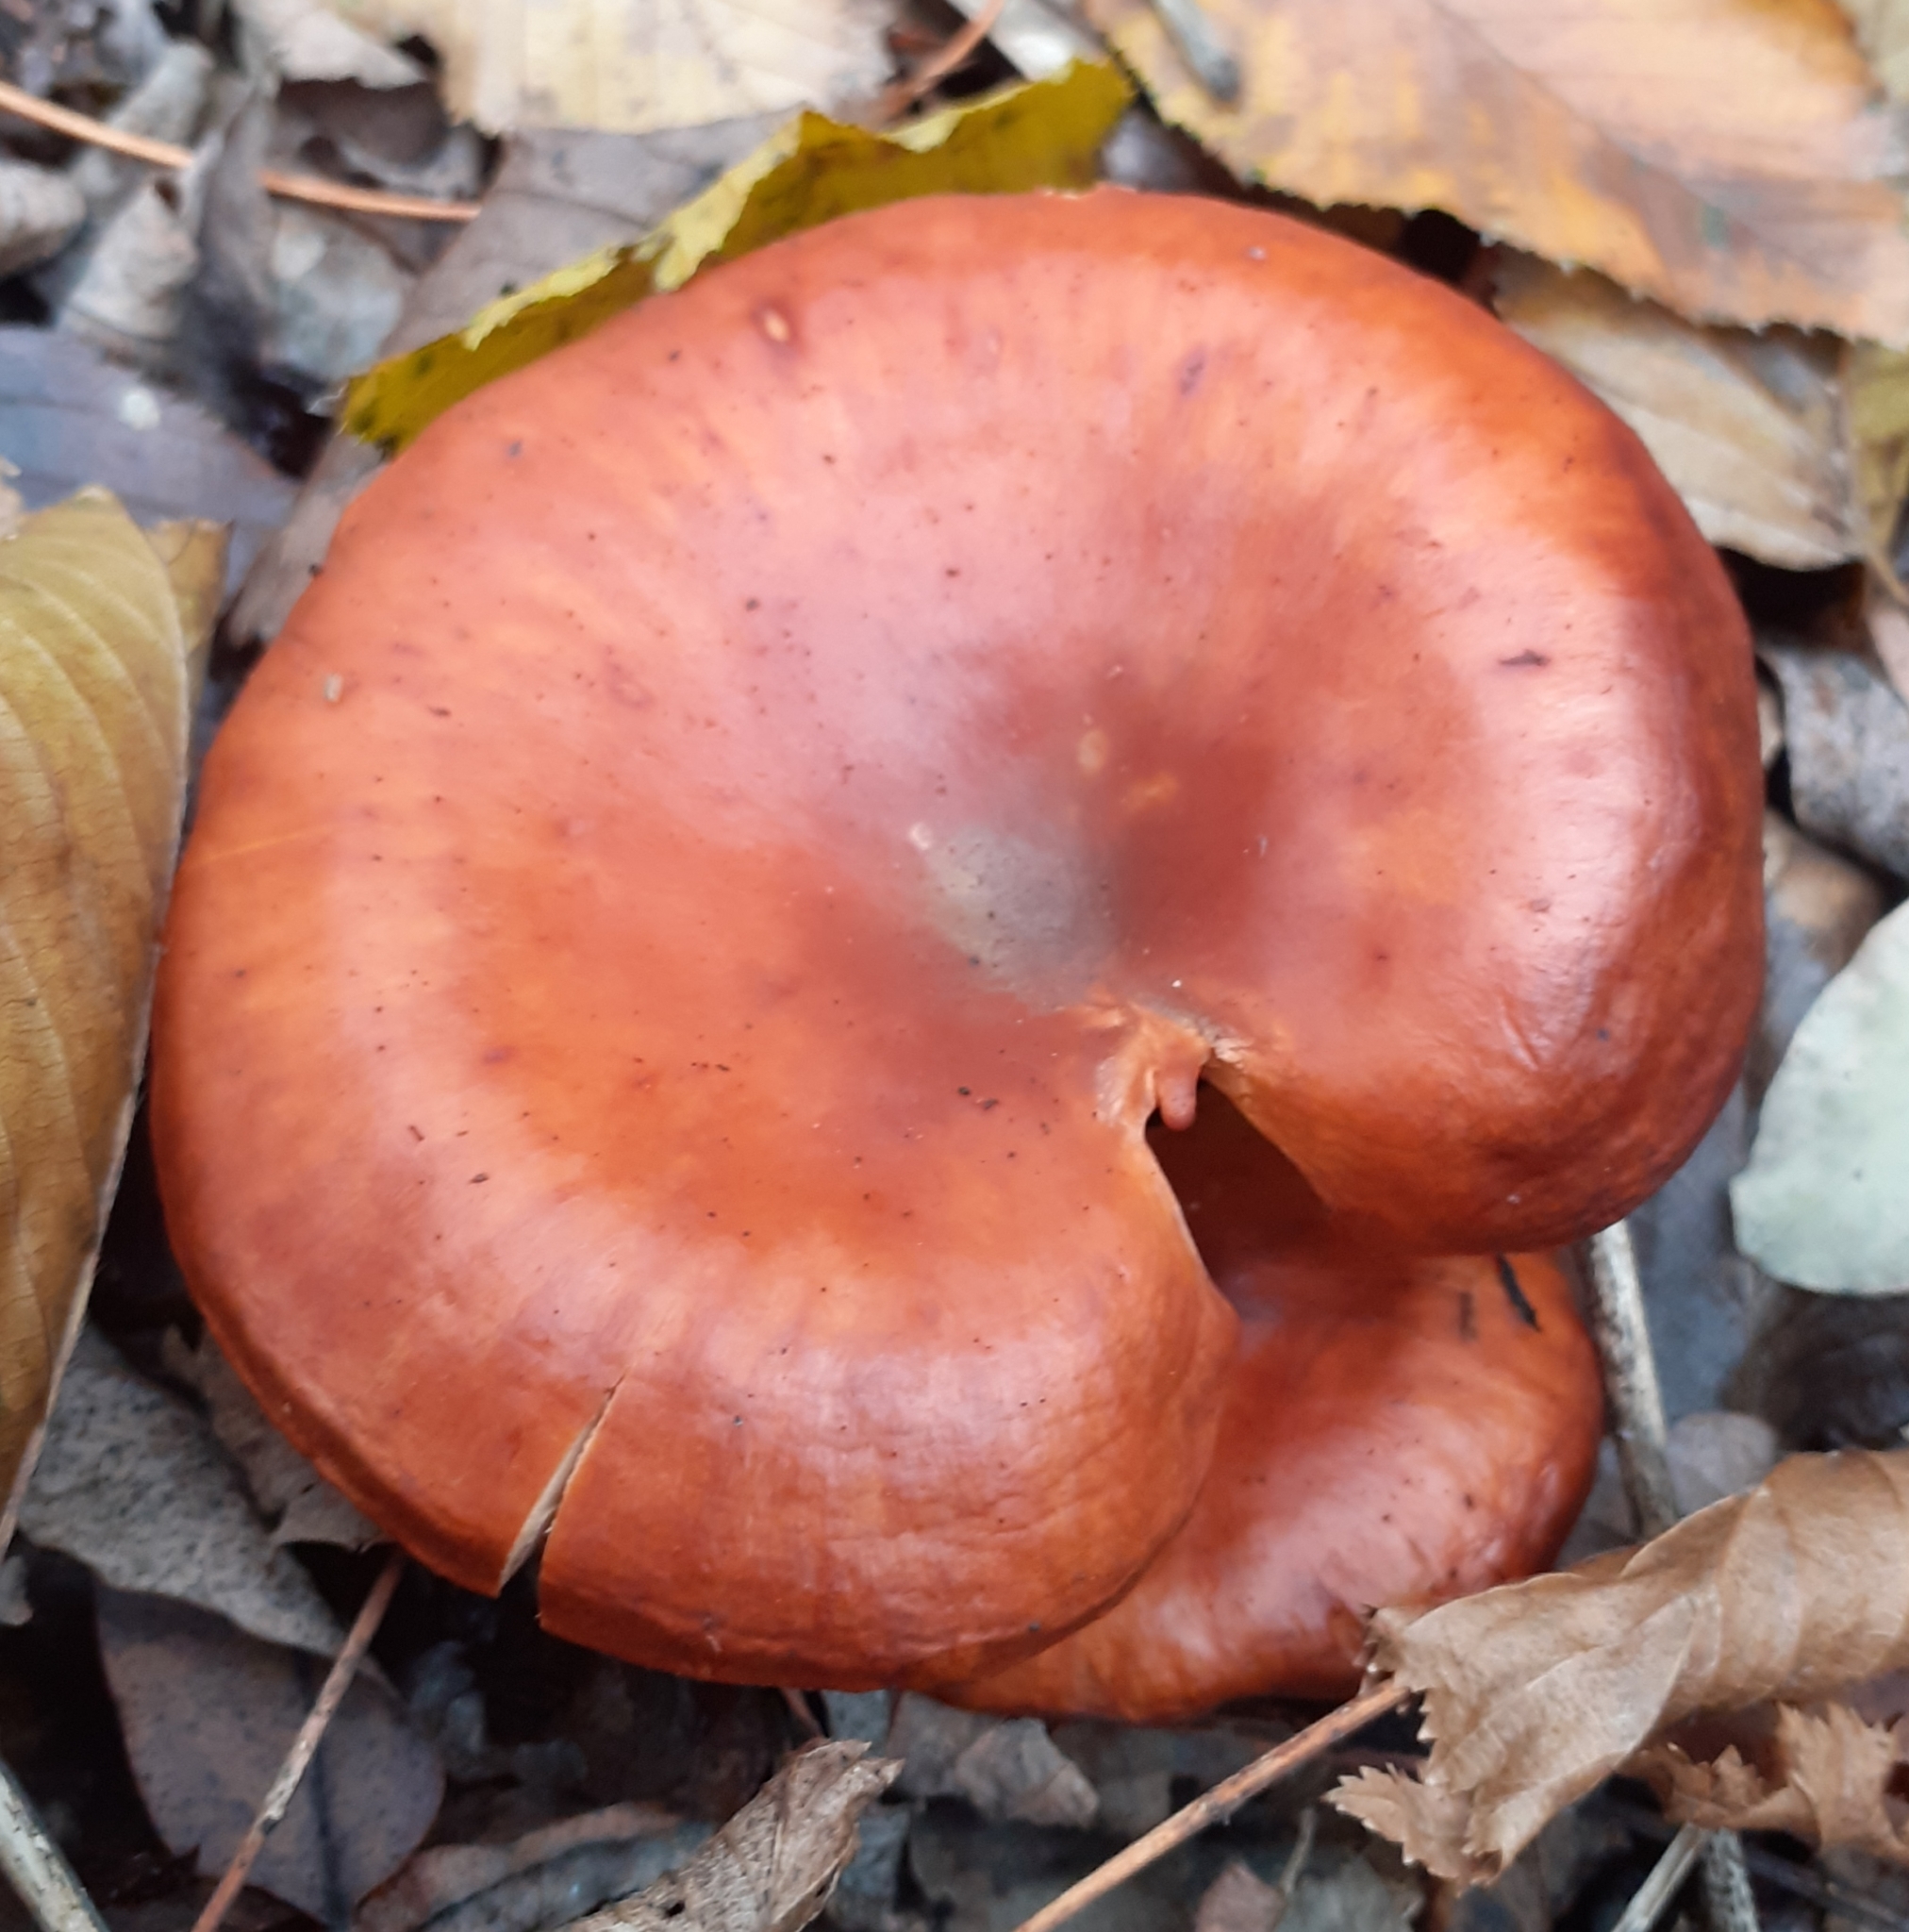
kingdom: Fungi
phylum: Basidiomycota
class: Agaricomycetes
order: Russulales
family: Russulaceae
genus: Lactarius
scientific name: Lactarius rufulus
